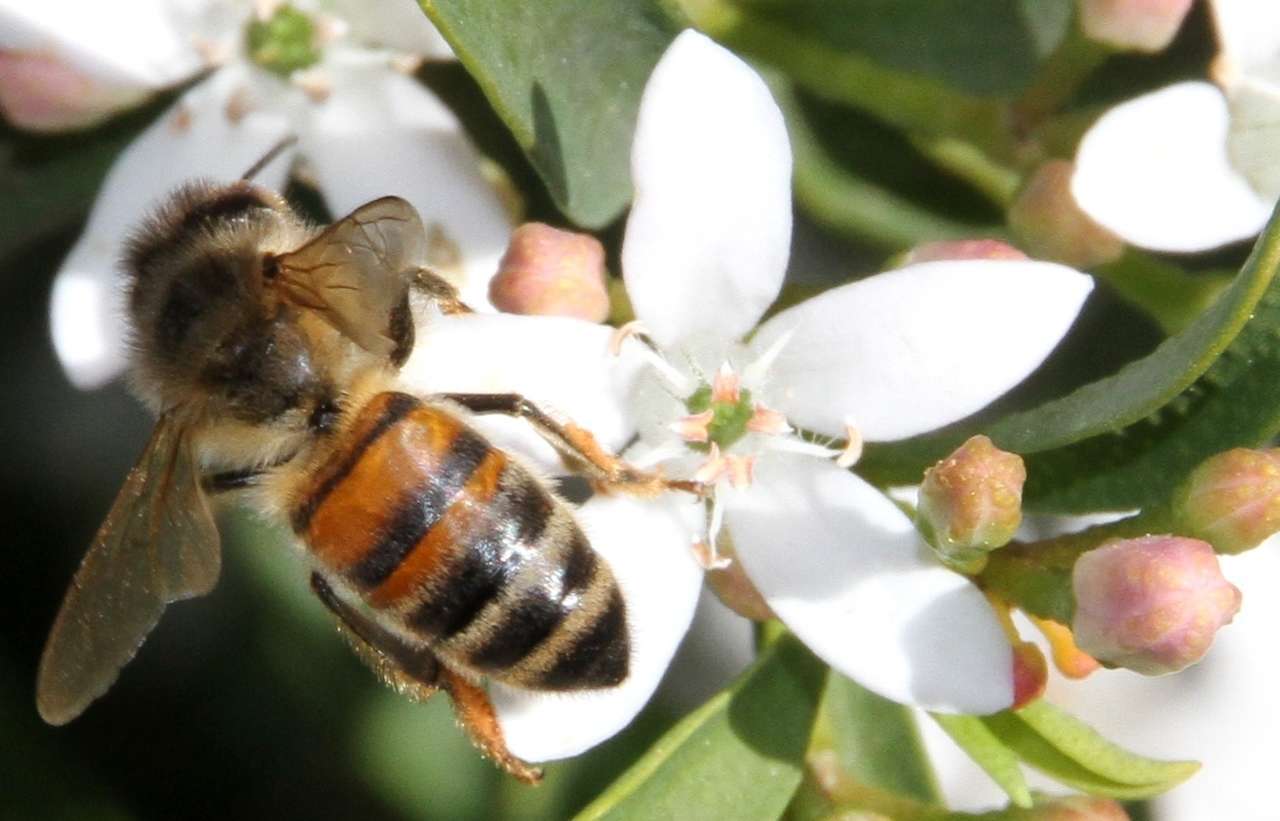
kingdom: Animalia
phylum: Arthropoda
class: Insecta
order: Hymenoptera
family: Apidae
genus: Apis
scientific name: Apis mellifera
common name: Honey bee
